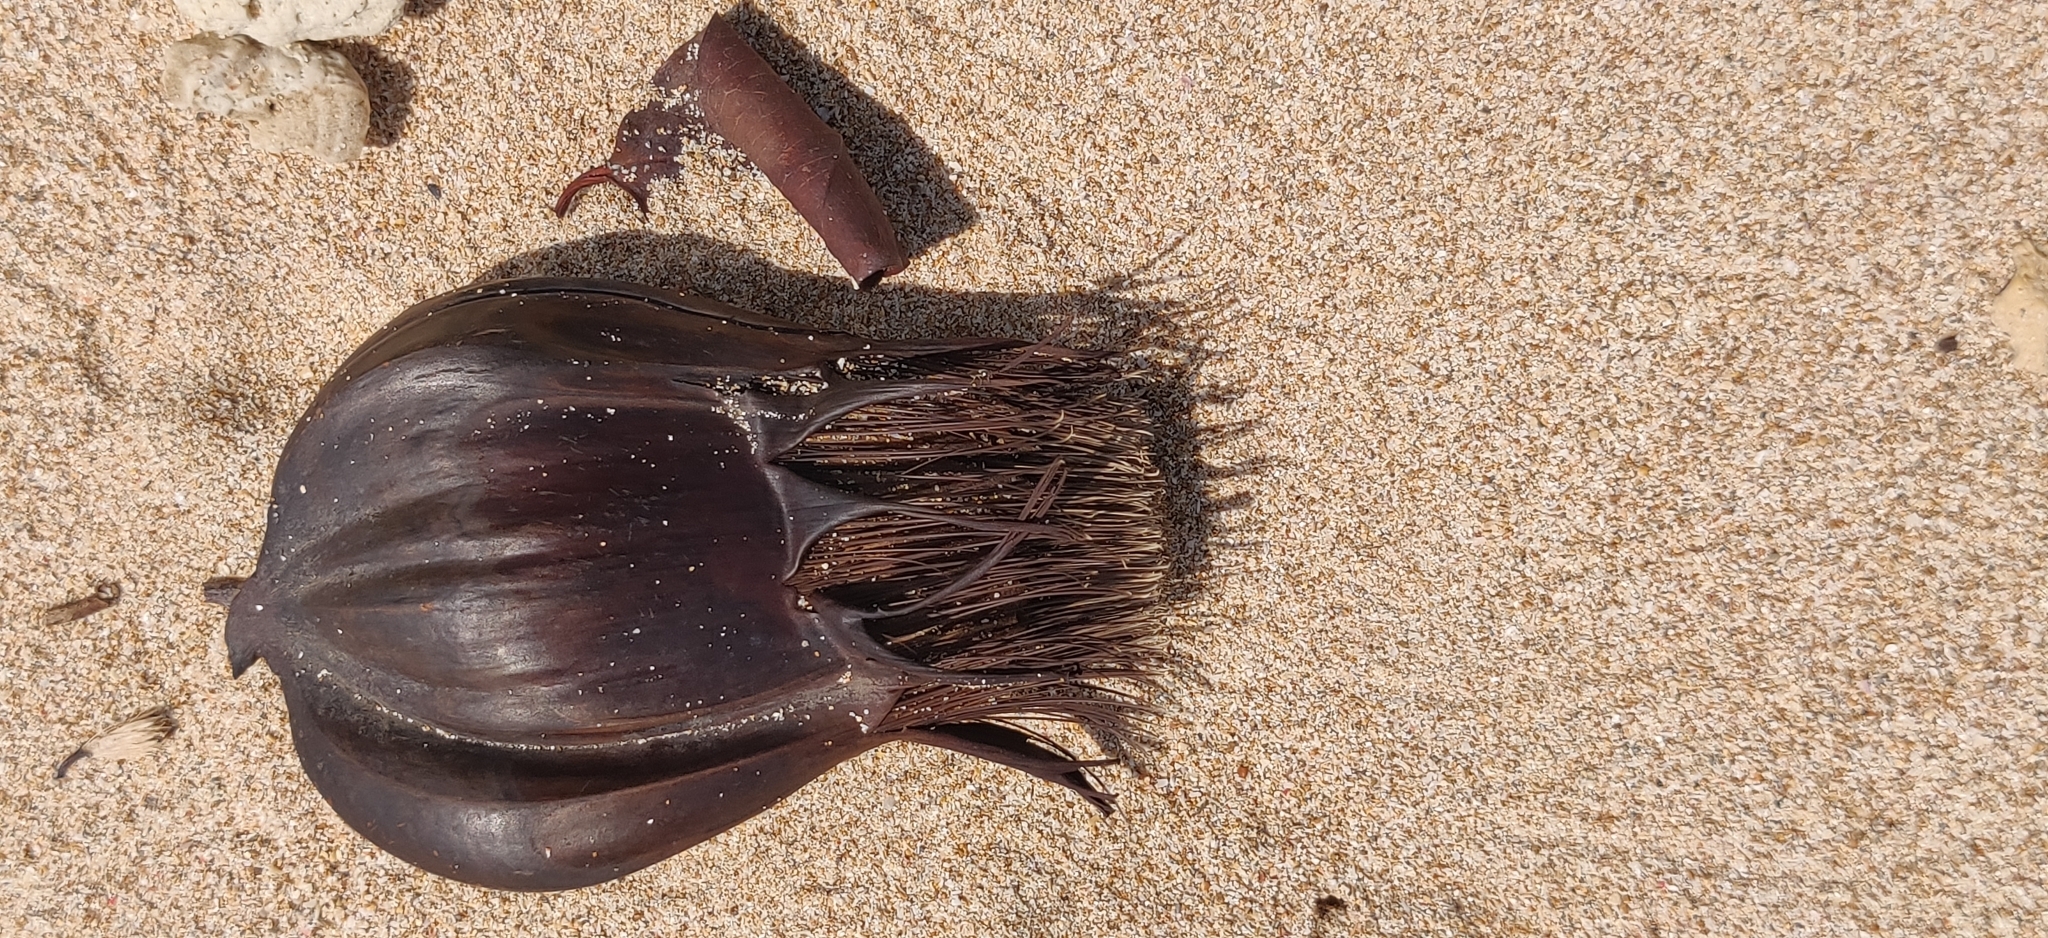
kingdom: Plantae
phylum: Tracheophyta
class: Liliopsida
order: Arecales
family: Arecaceae
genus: Nypa
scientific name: Nypa fruticans
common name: Mangrove palm
